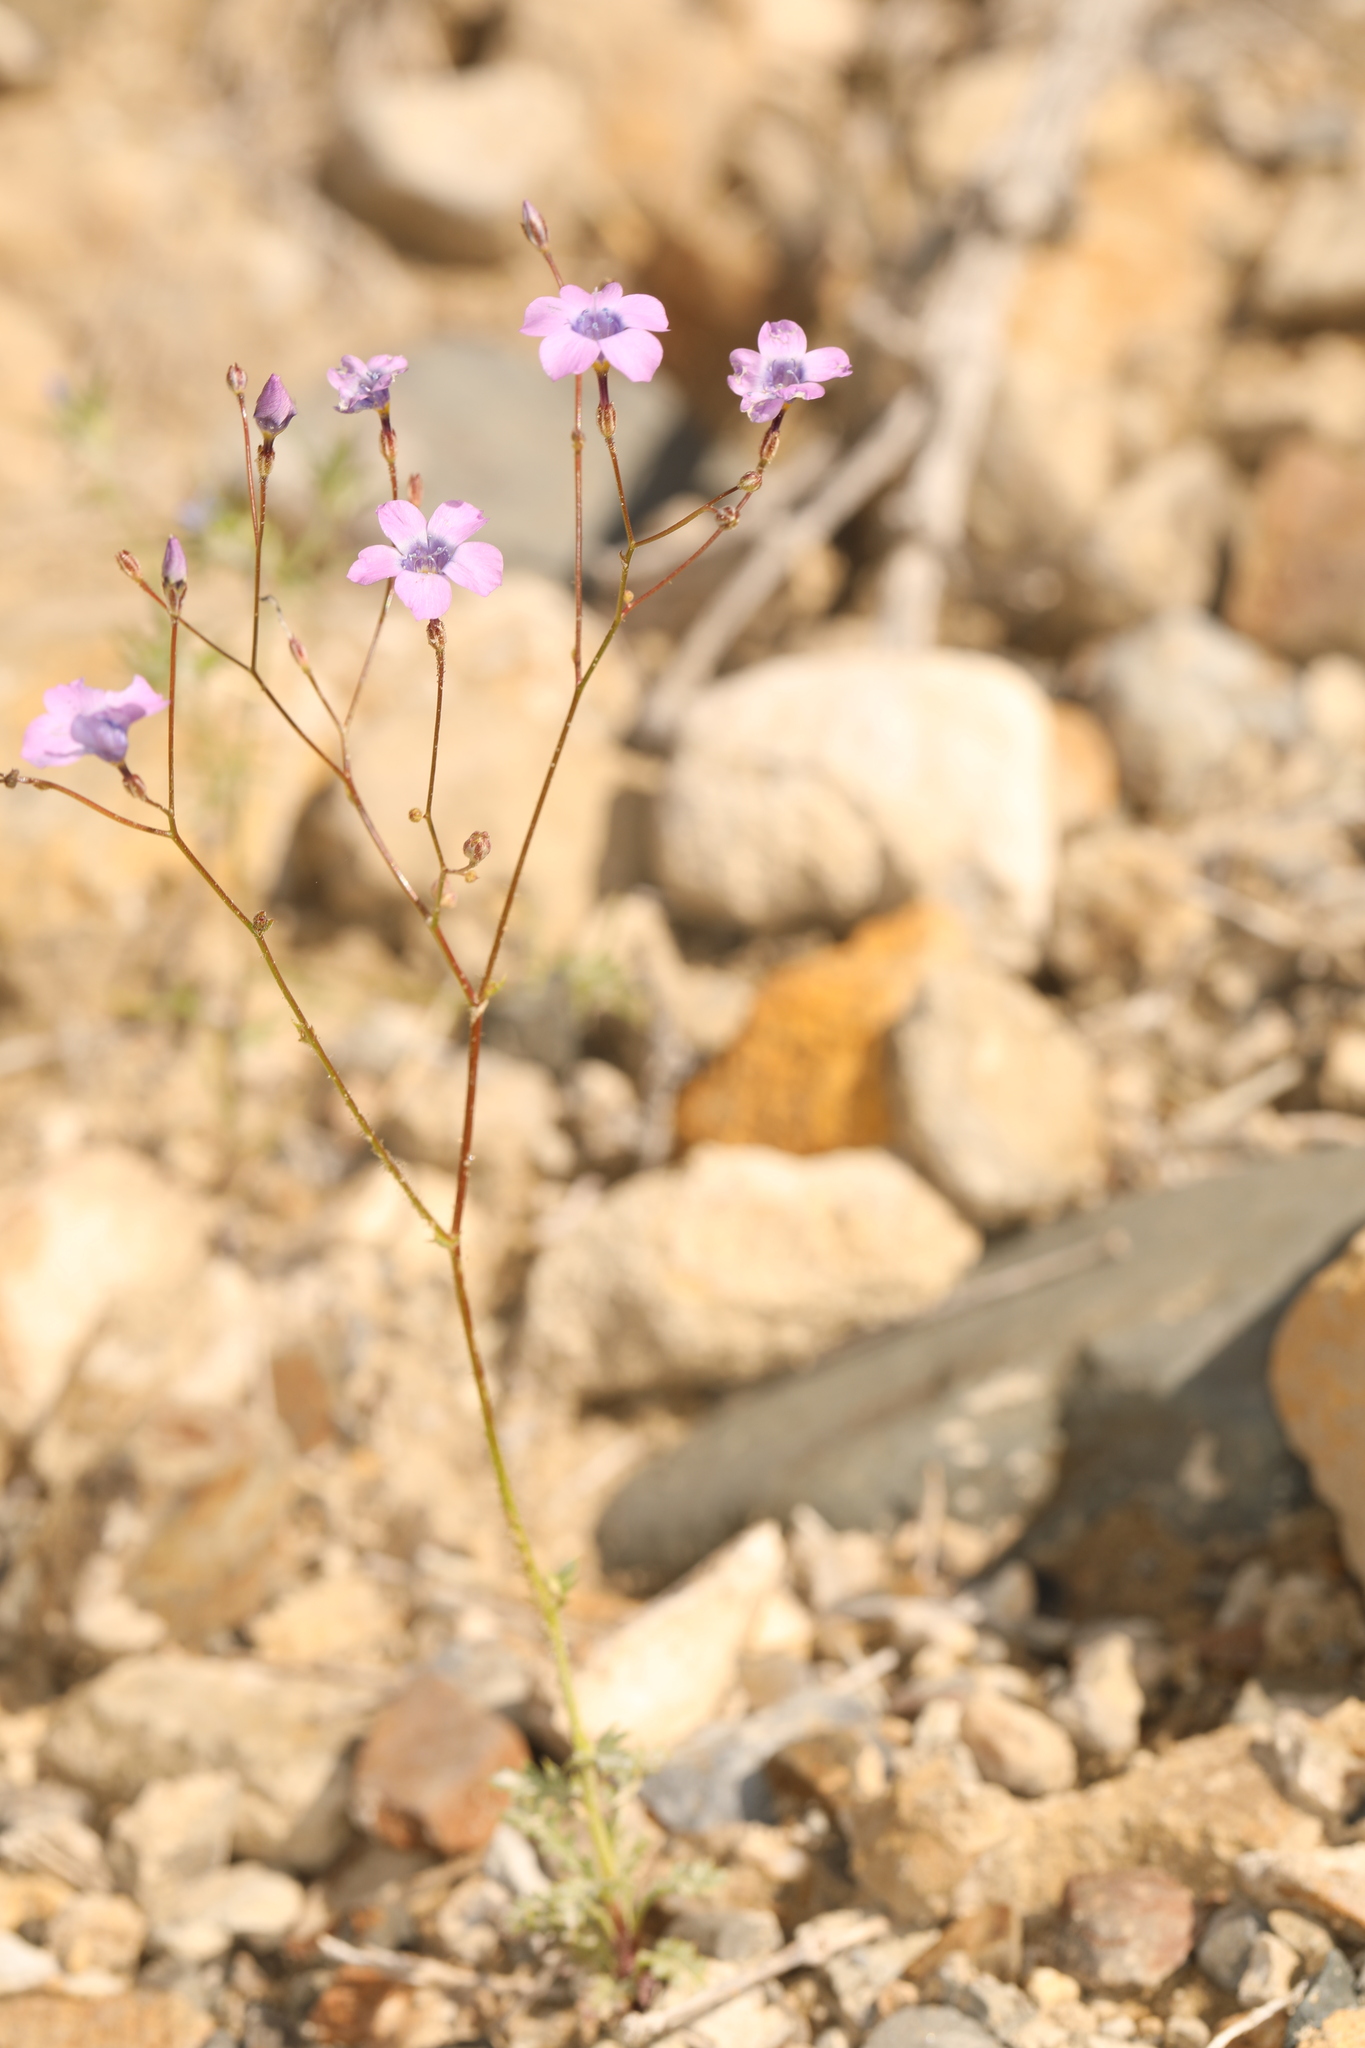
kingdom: Plantae
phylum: Tracheophyta
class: Magnoliopsida
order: Ericales
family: Polemoniaceae
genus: Gilia
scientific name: Gilia cana
